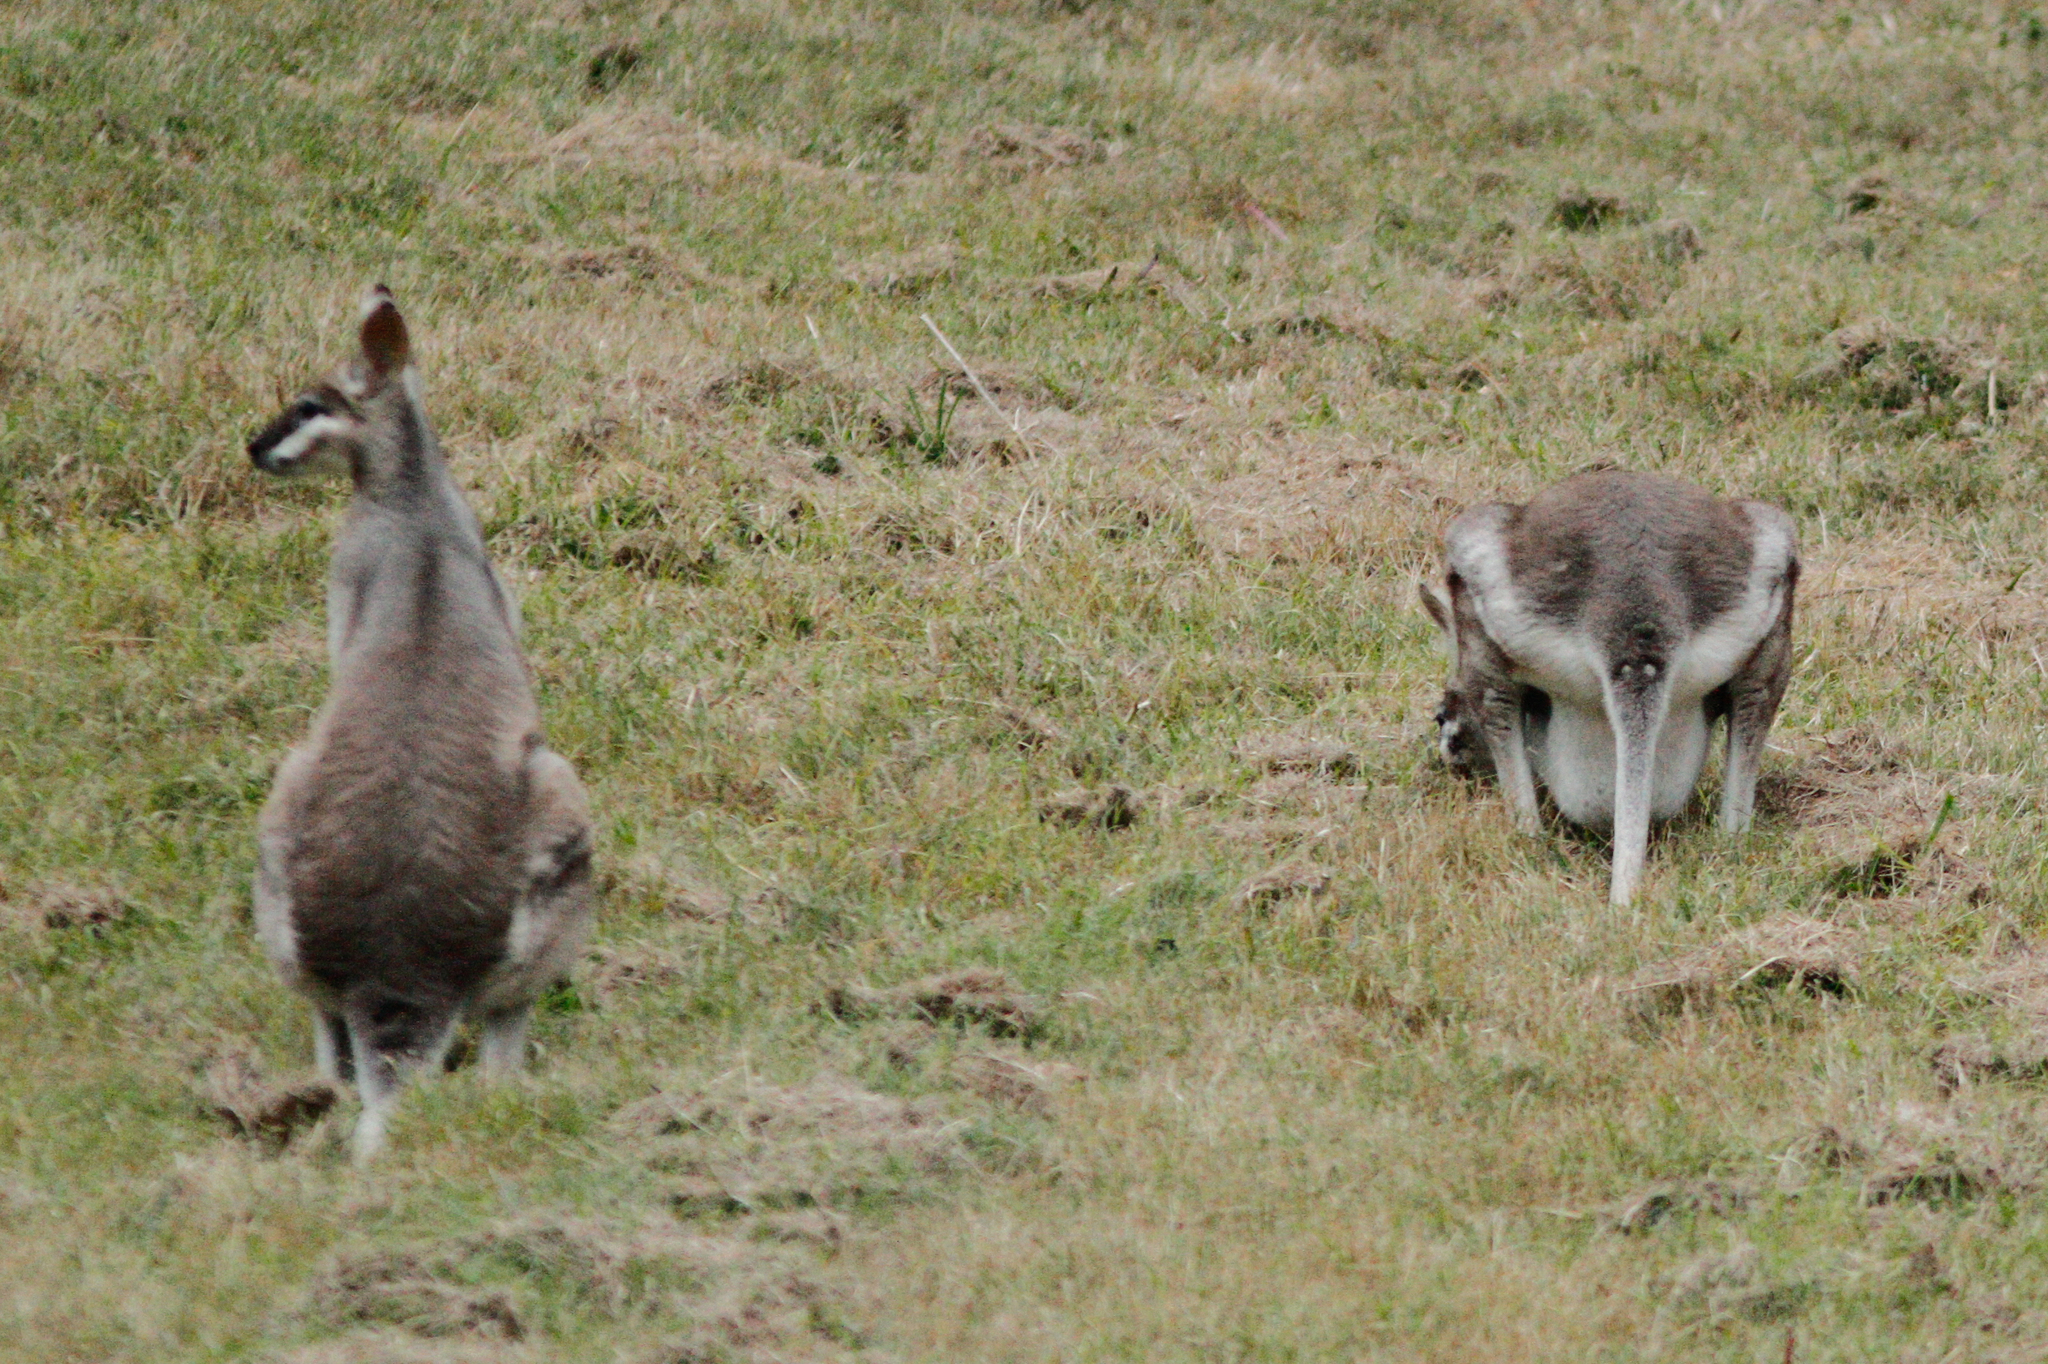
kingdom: Animalia
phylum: Chordata
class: Mammalia
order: Diprotodontia
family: Macropodidae
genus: Notamacropus
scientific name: Notamacropus parryi
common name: Whip-tailed wallaby
